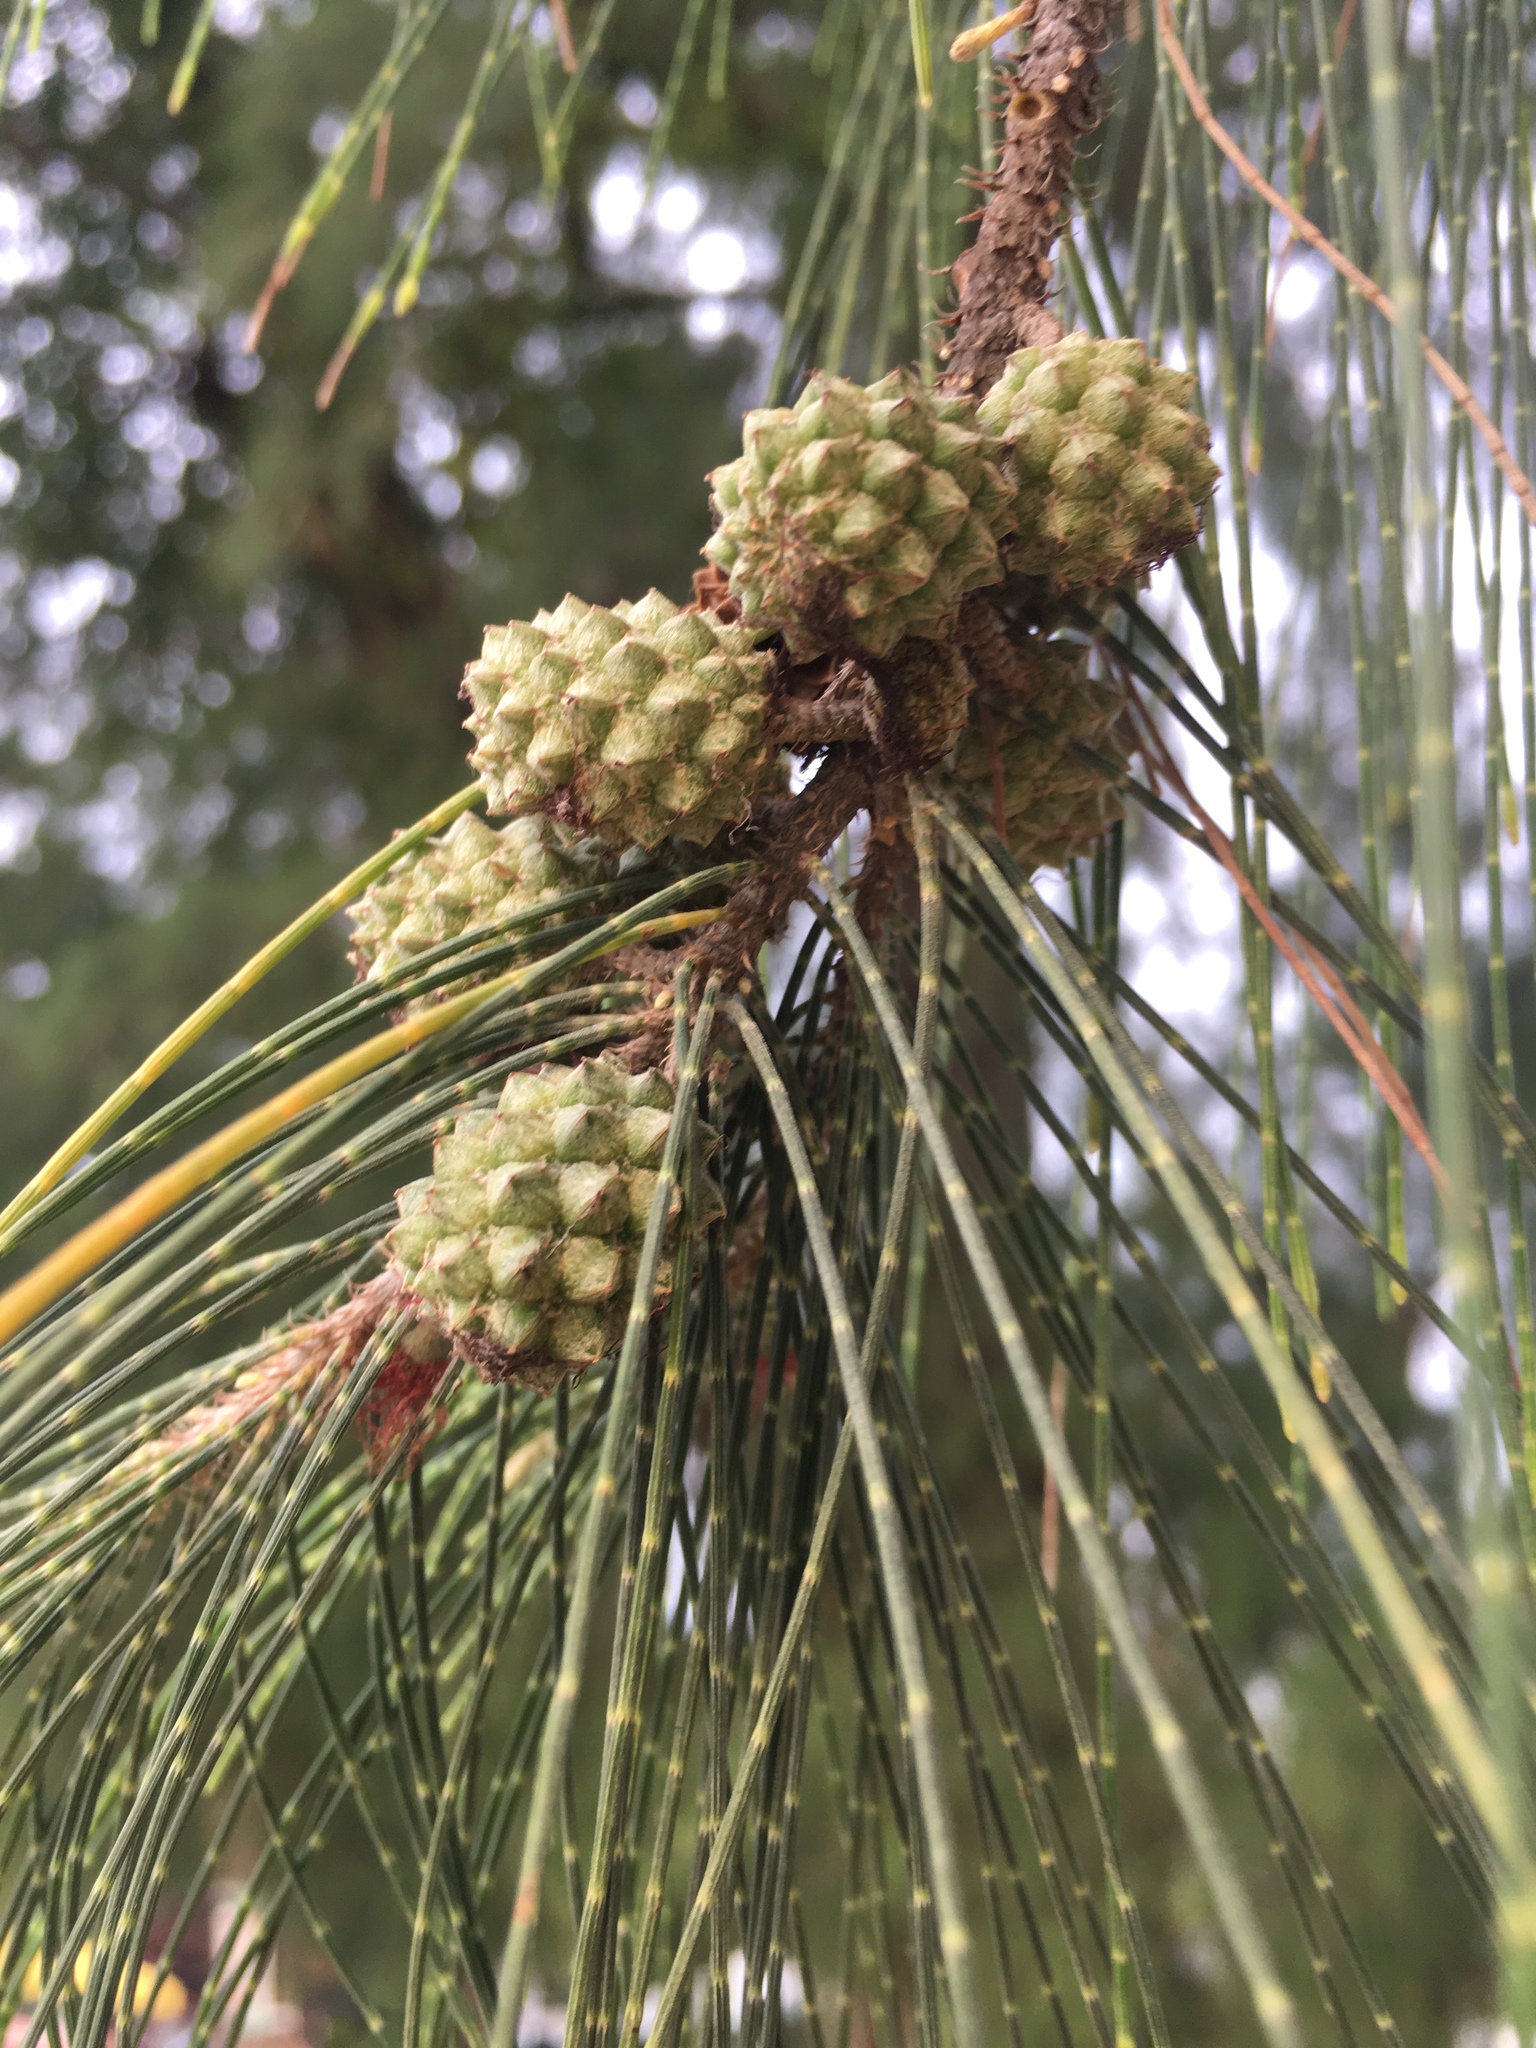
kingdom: Plantae
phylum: Tracheophyta
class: Magnoliopsida
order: Fagales
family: Casuarinaceae
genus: Casuarina
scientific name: Casuarina equisetifolia
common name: Beach sheoak
